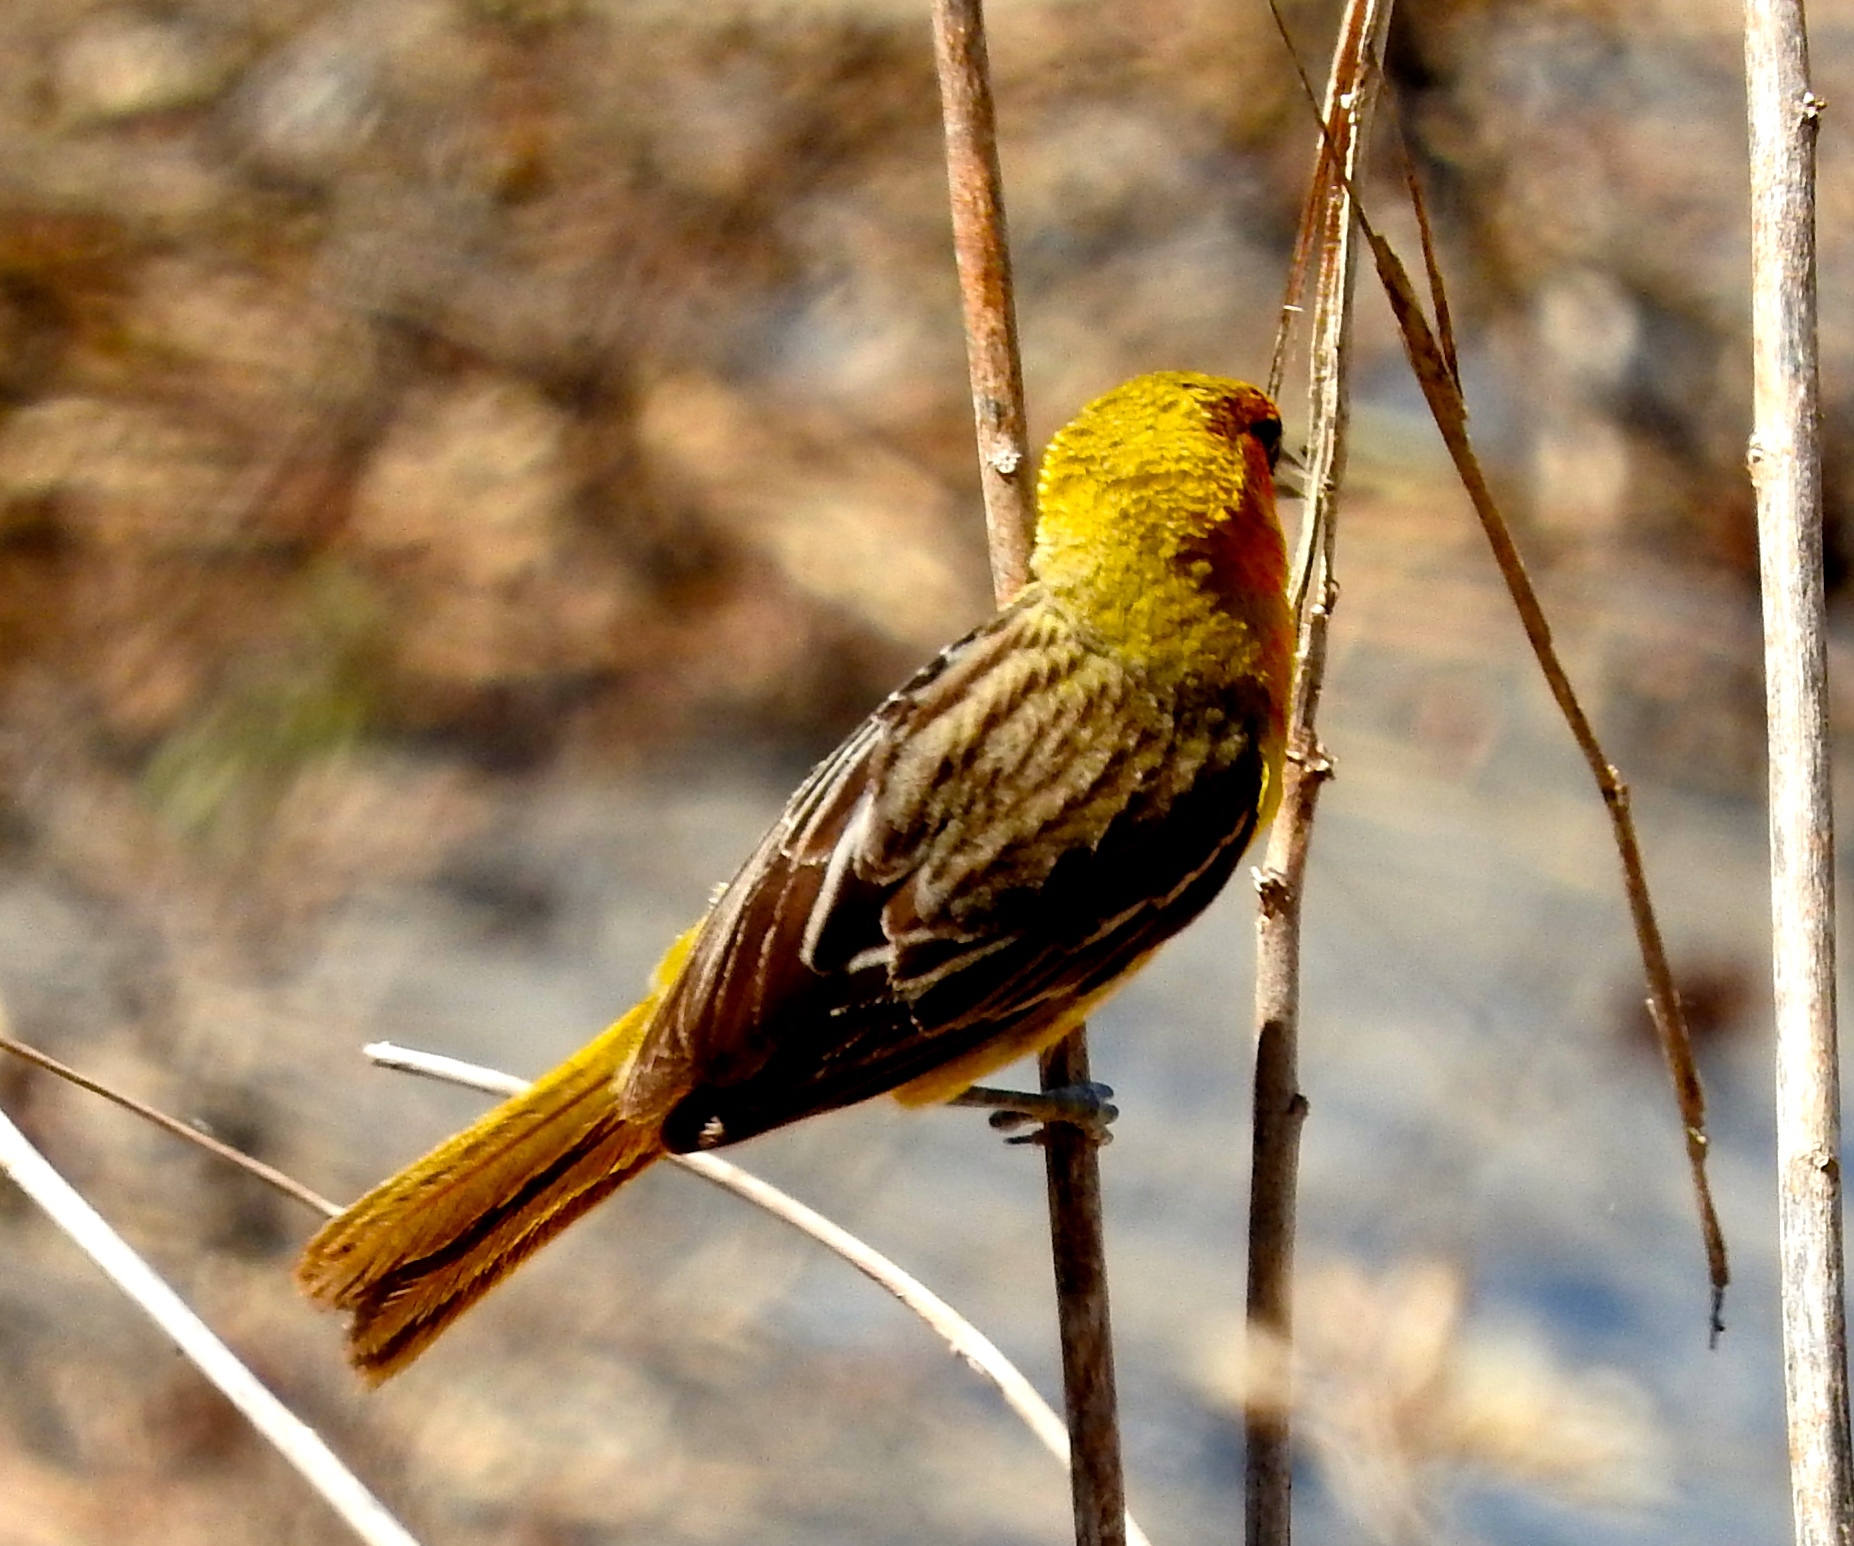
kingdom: Animalia
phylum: Chordata
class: Aves
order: Passeriformes
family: Icteridae
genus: Icterus
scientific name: Icterus pustulatus
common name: Streak-backed oriole
